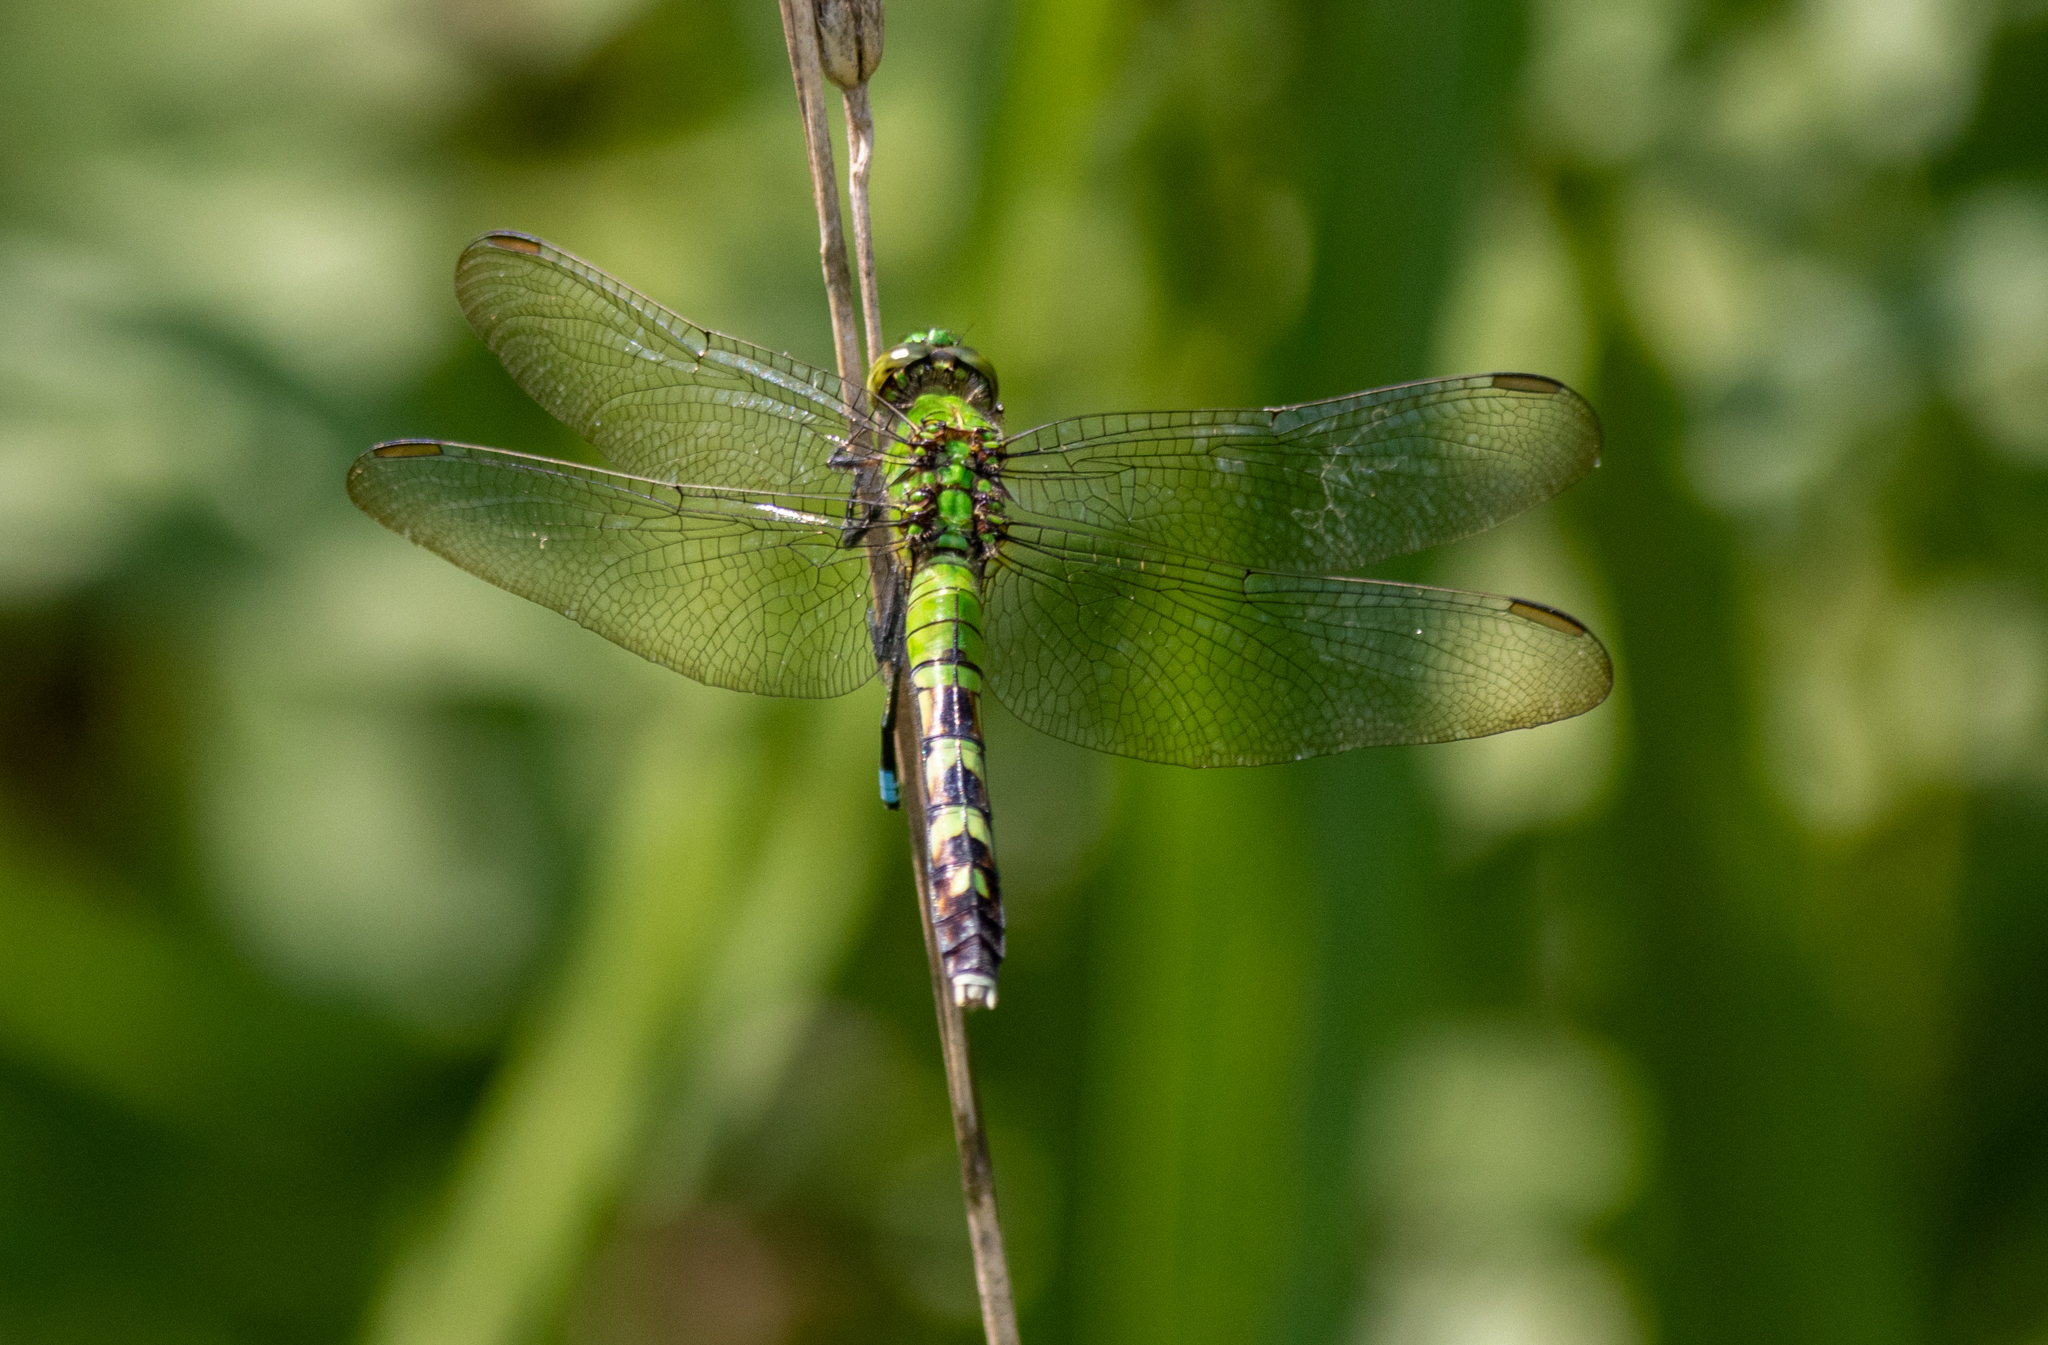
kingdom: Animalia
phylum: Arthropoda
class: Insecta
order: Odonata
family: Libellulidae
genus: Erythemis
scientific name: Erythemis simplicicollis
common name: Eastern pondhawk
